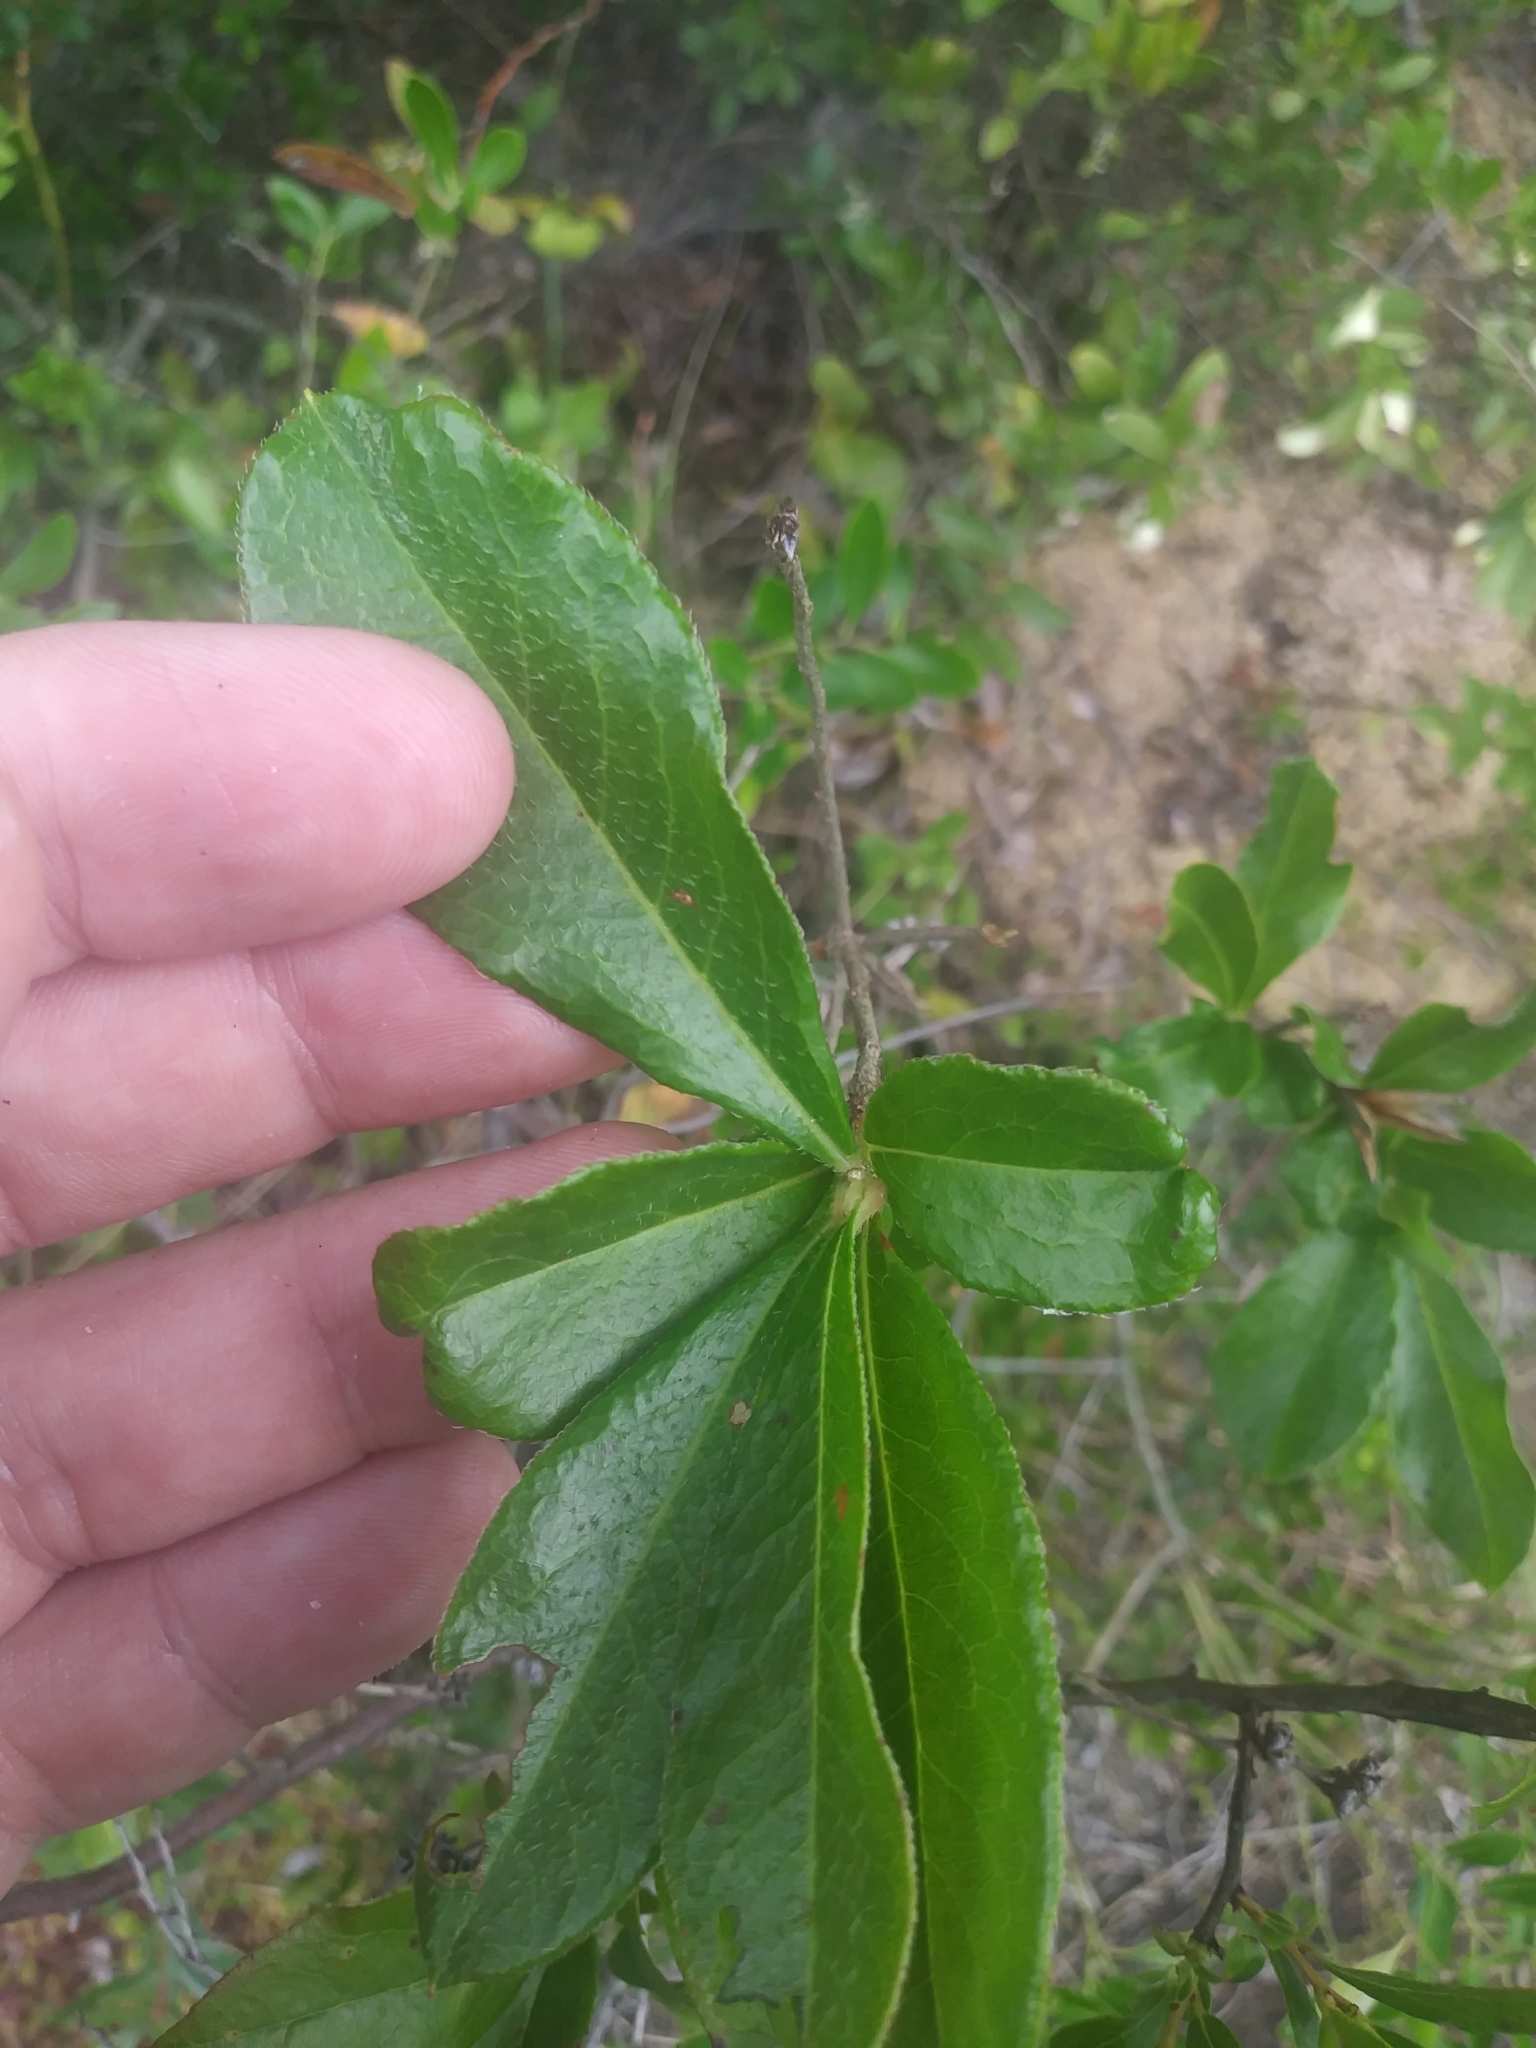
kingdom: Plantae
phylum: Tracheophyta
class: Magnoliopsida
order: Ericales
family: Ericaceae
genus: Rhododendron
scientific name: Rhododendron viscosum
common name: Clammy azalea
